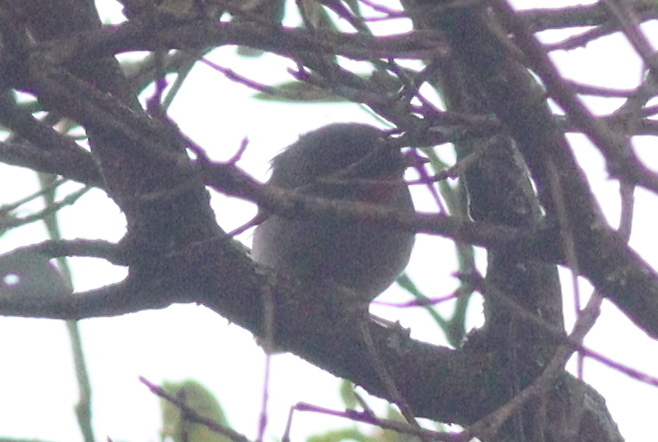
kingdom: Animalia
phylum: Chordata
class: Aves
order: Passeriformes
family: Cisticolidae
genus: Apalis
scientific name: Apalis porphyrolaema
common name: Chestnut-throated apalis
